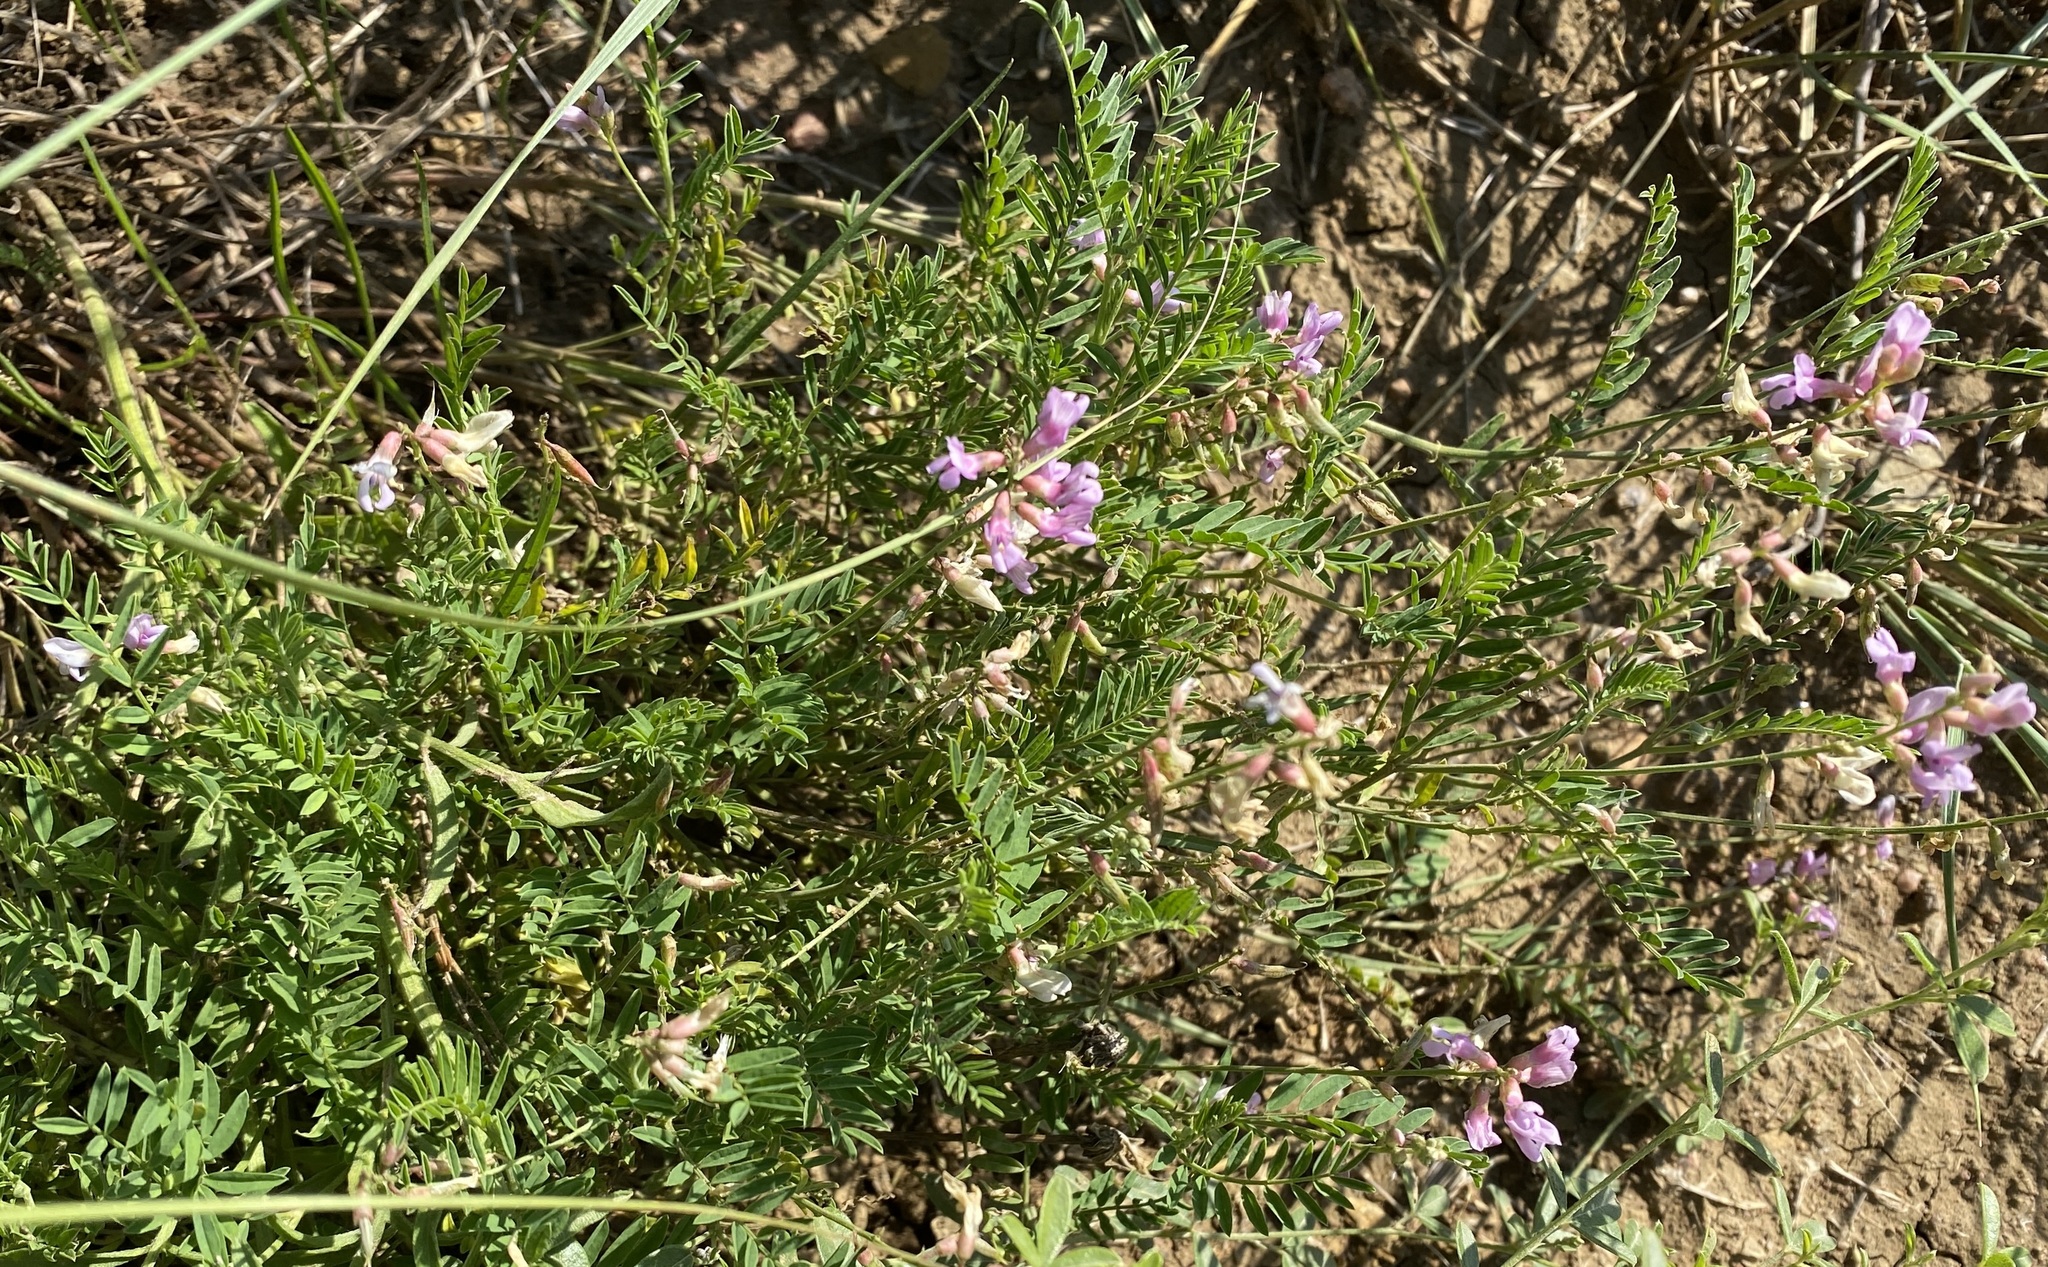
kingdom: Plantae
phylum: Tracheophyta
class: Magnoliopsida
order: Fabales
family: Fabaceae
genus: Astragalus
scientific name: Astragalus flexuosus
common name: Pliant milk-vetch
